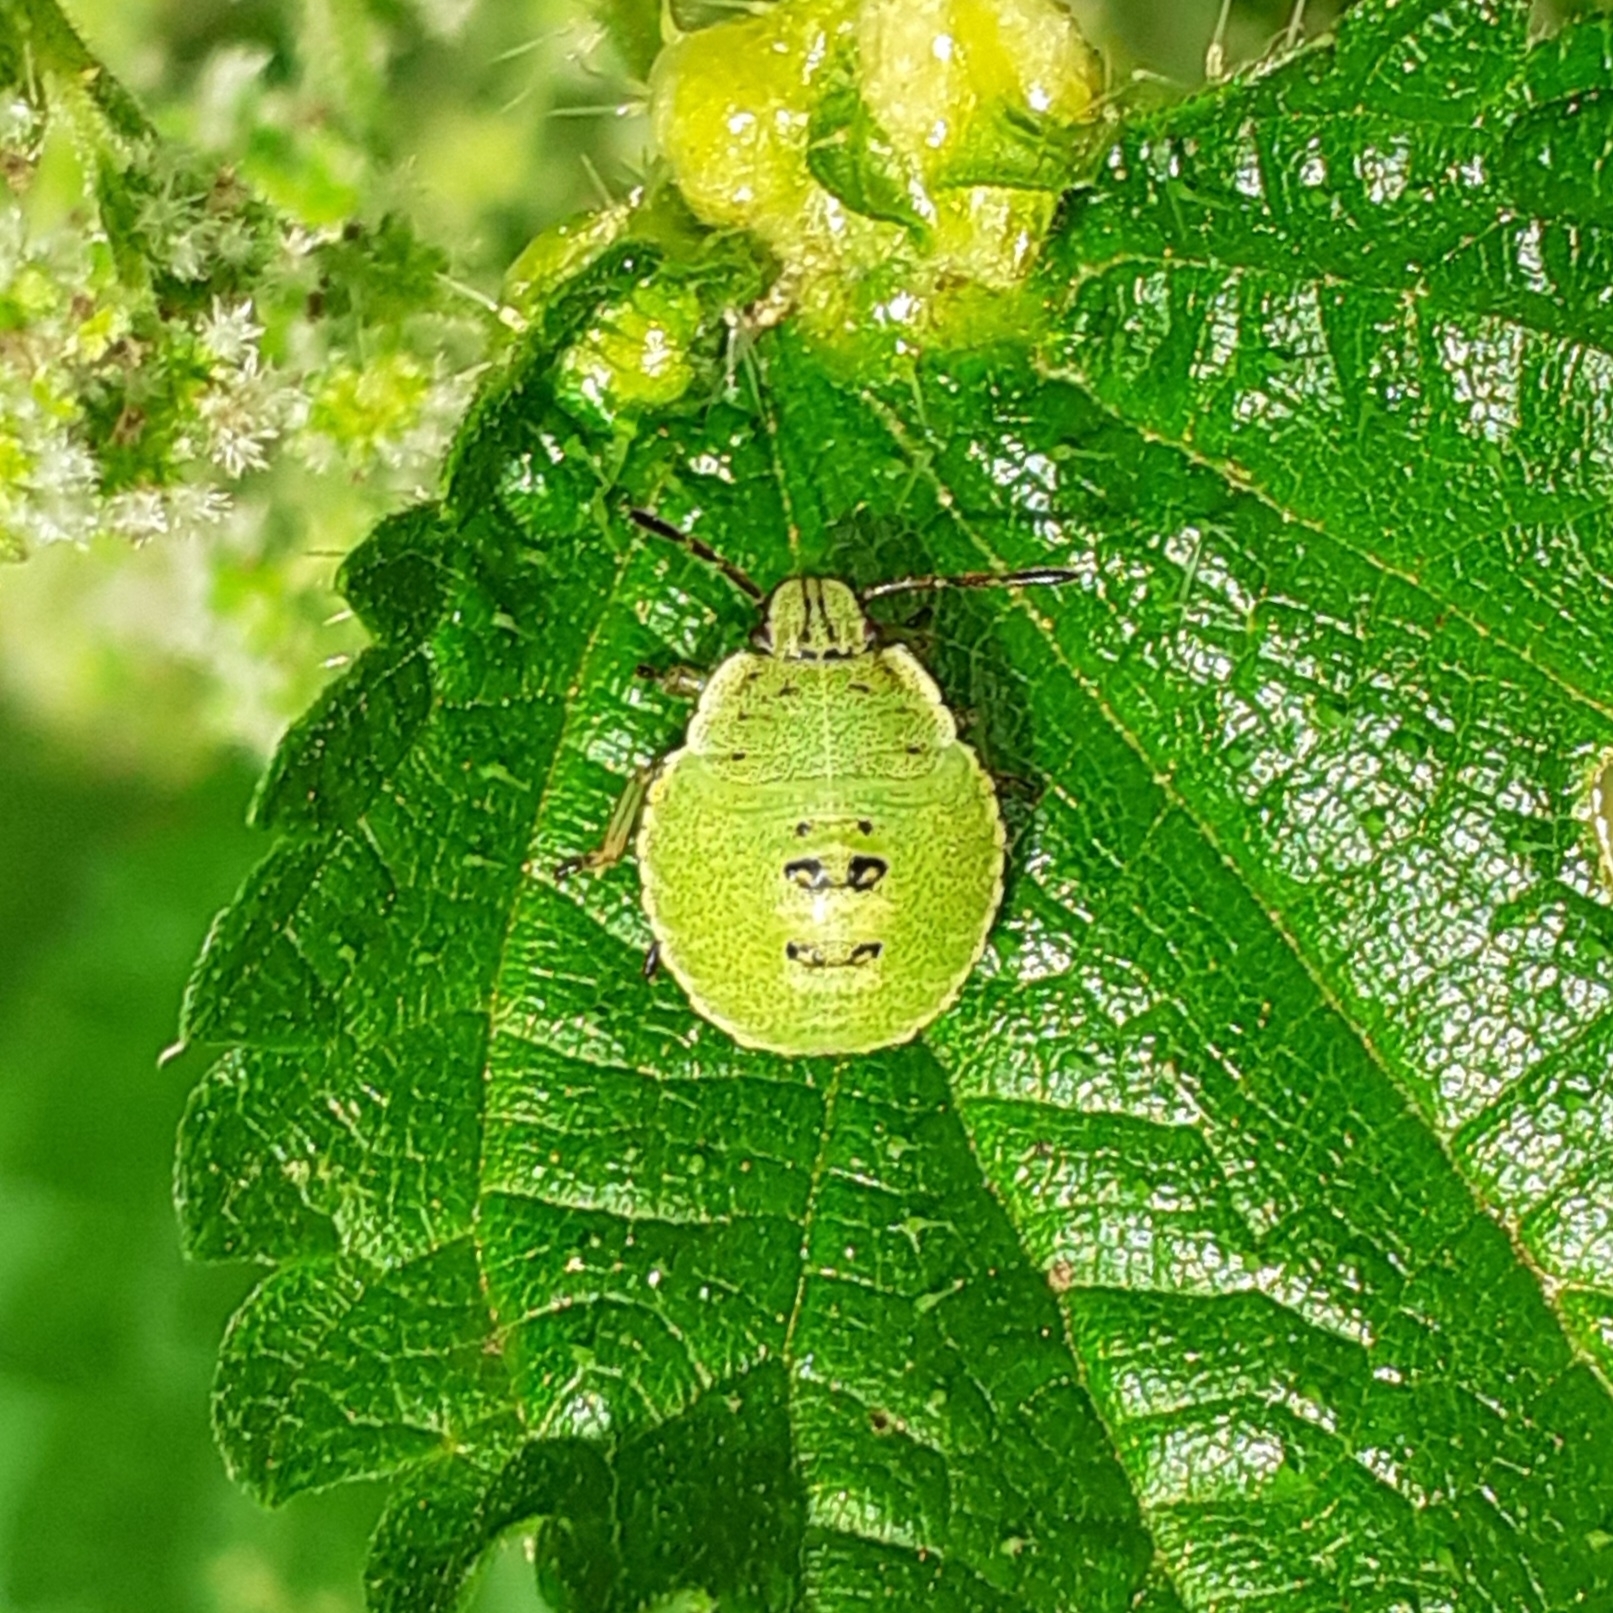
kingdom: Animalia
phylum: Arthropoda
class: Insecta
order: Hemiptera
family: Pentatomidae
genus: Palomena
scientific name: Palomena prasina
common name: Green shieldbug
